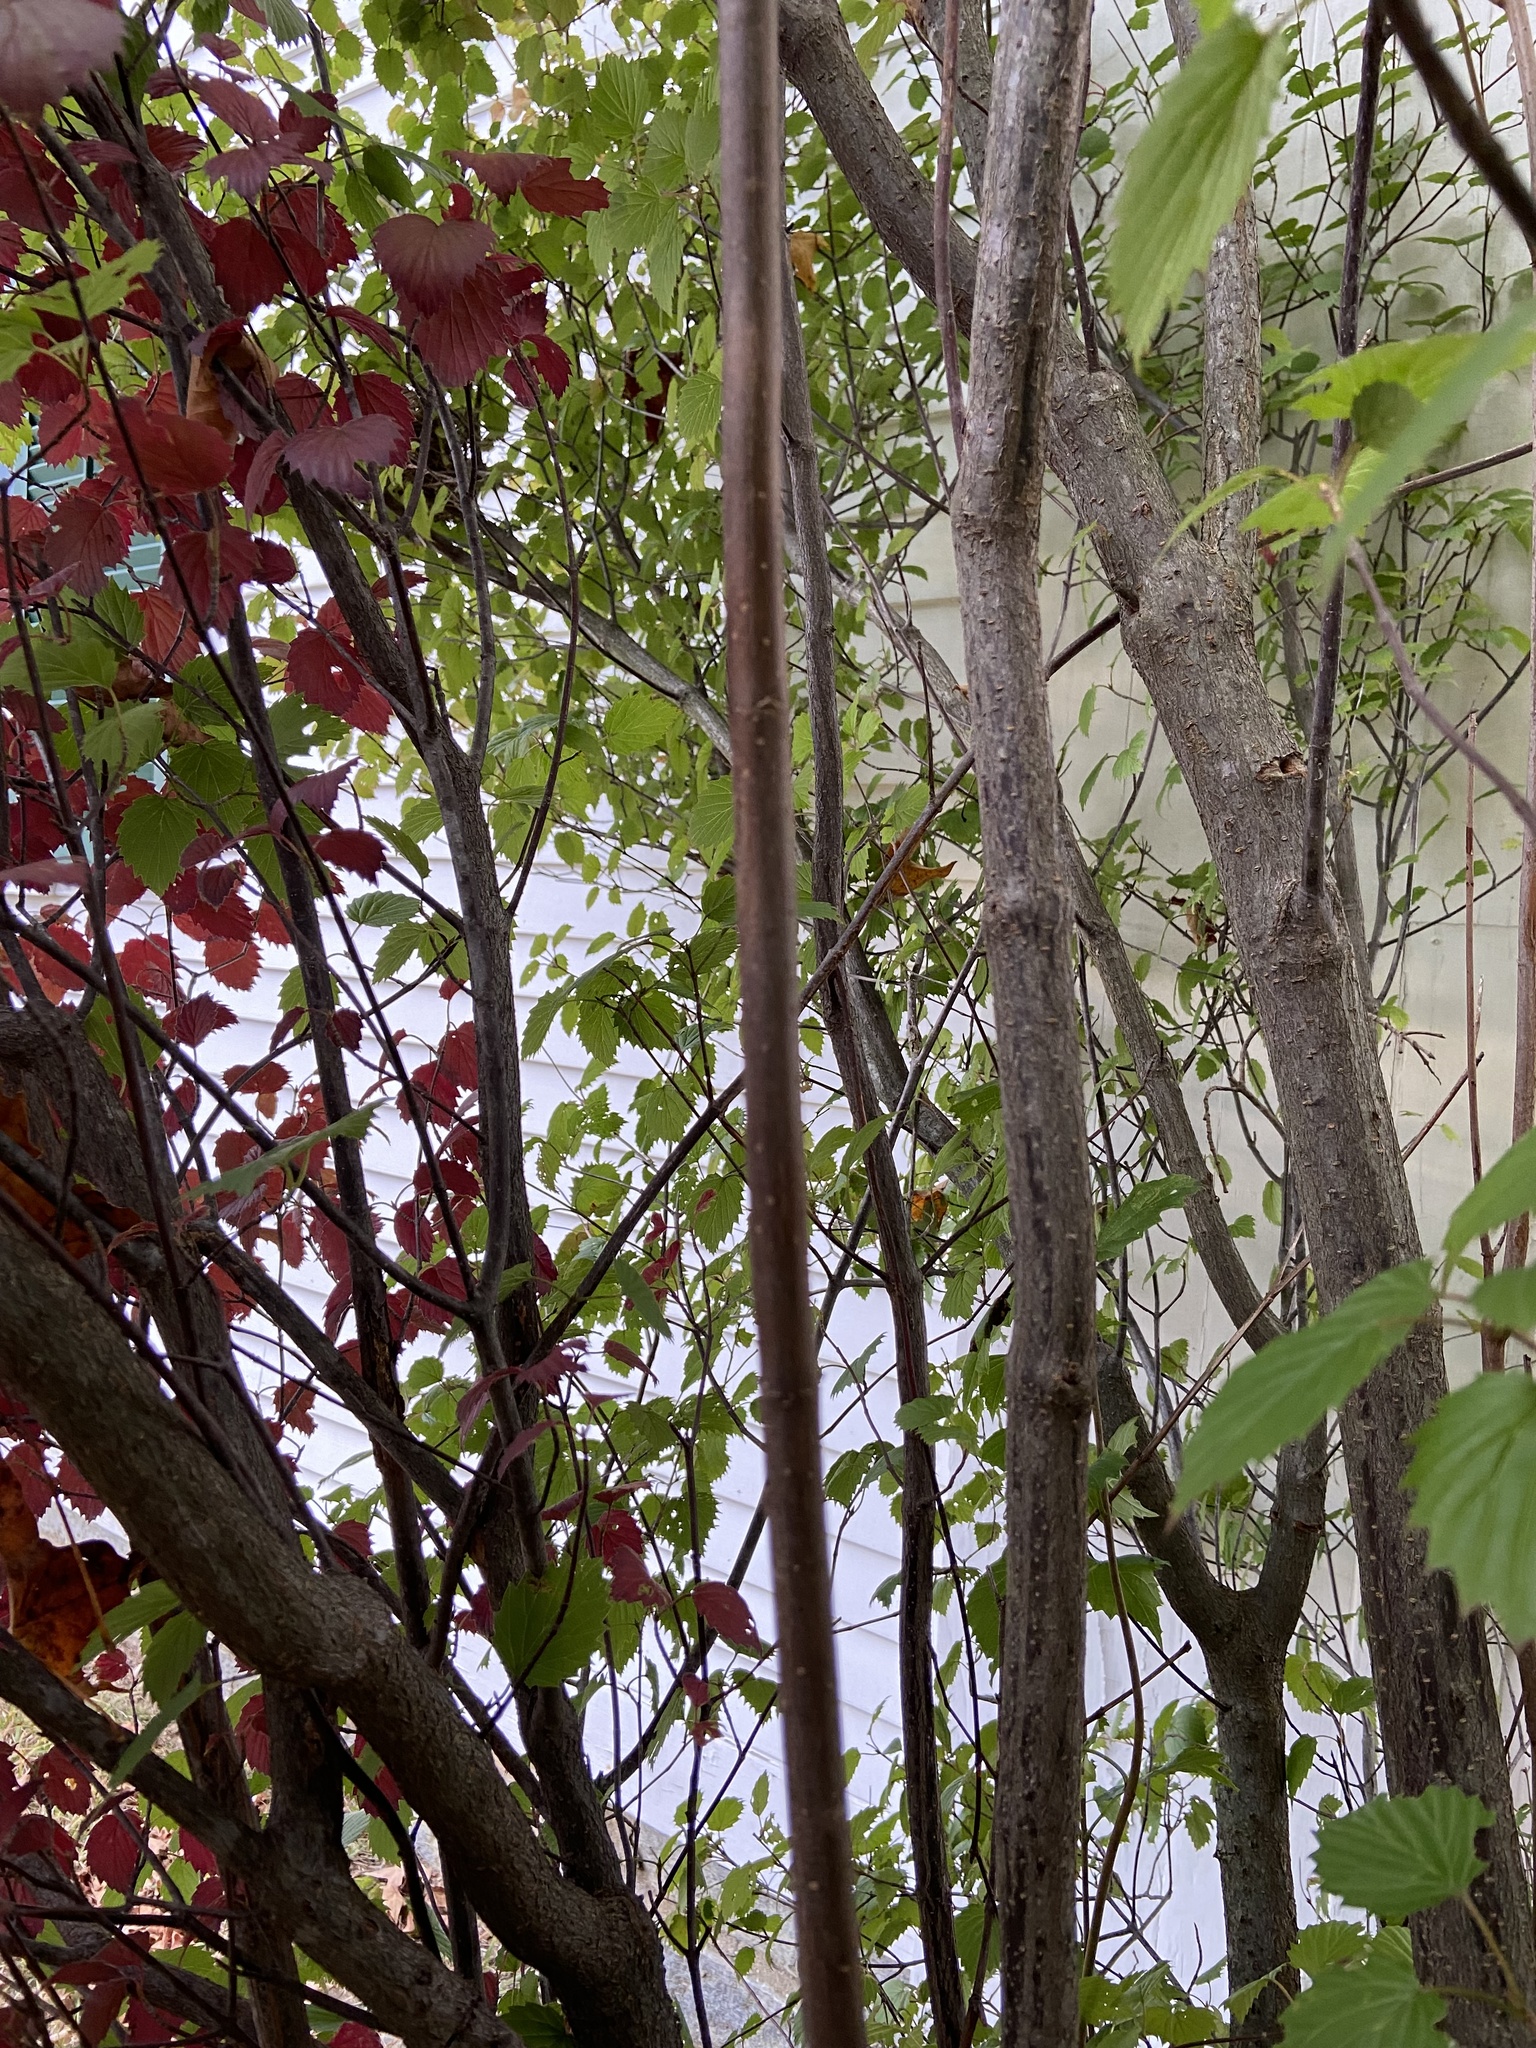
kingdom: Plantae
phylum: Tracheophyta
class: Magnoliopsida
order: Dipsacales
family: Viburnaceae
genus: Viburnum
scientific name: Viburnum dentatum
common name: Arrow-wood
